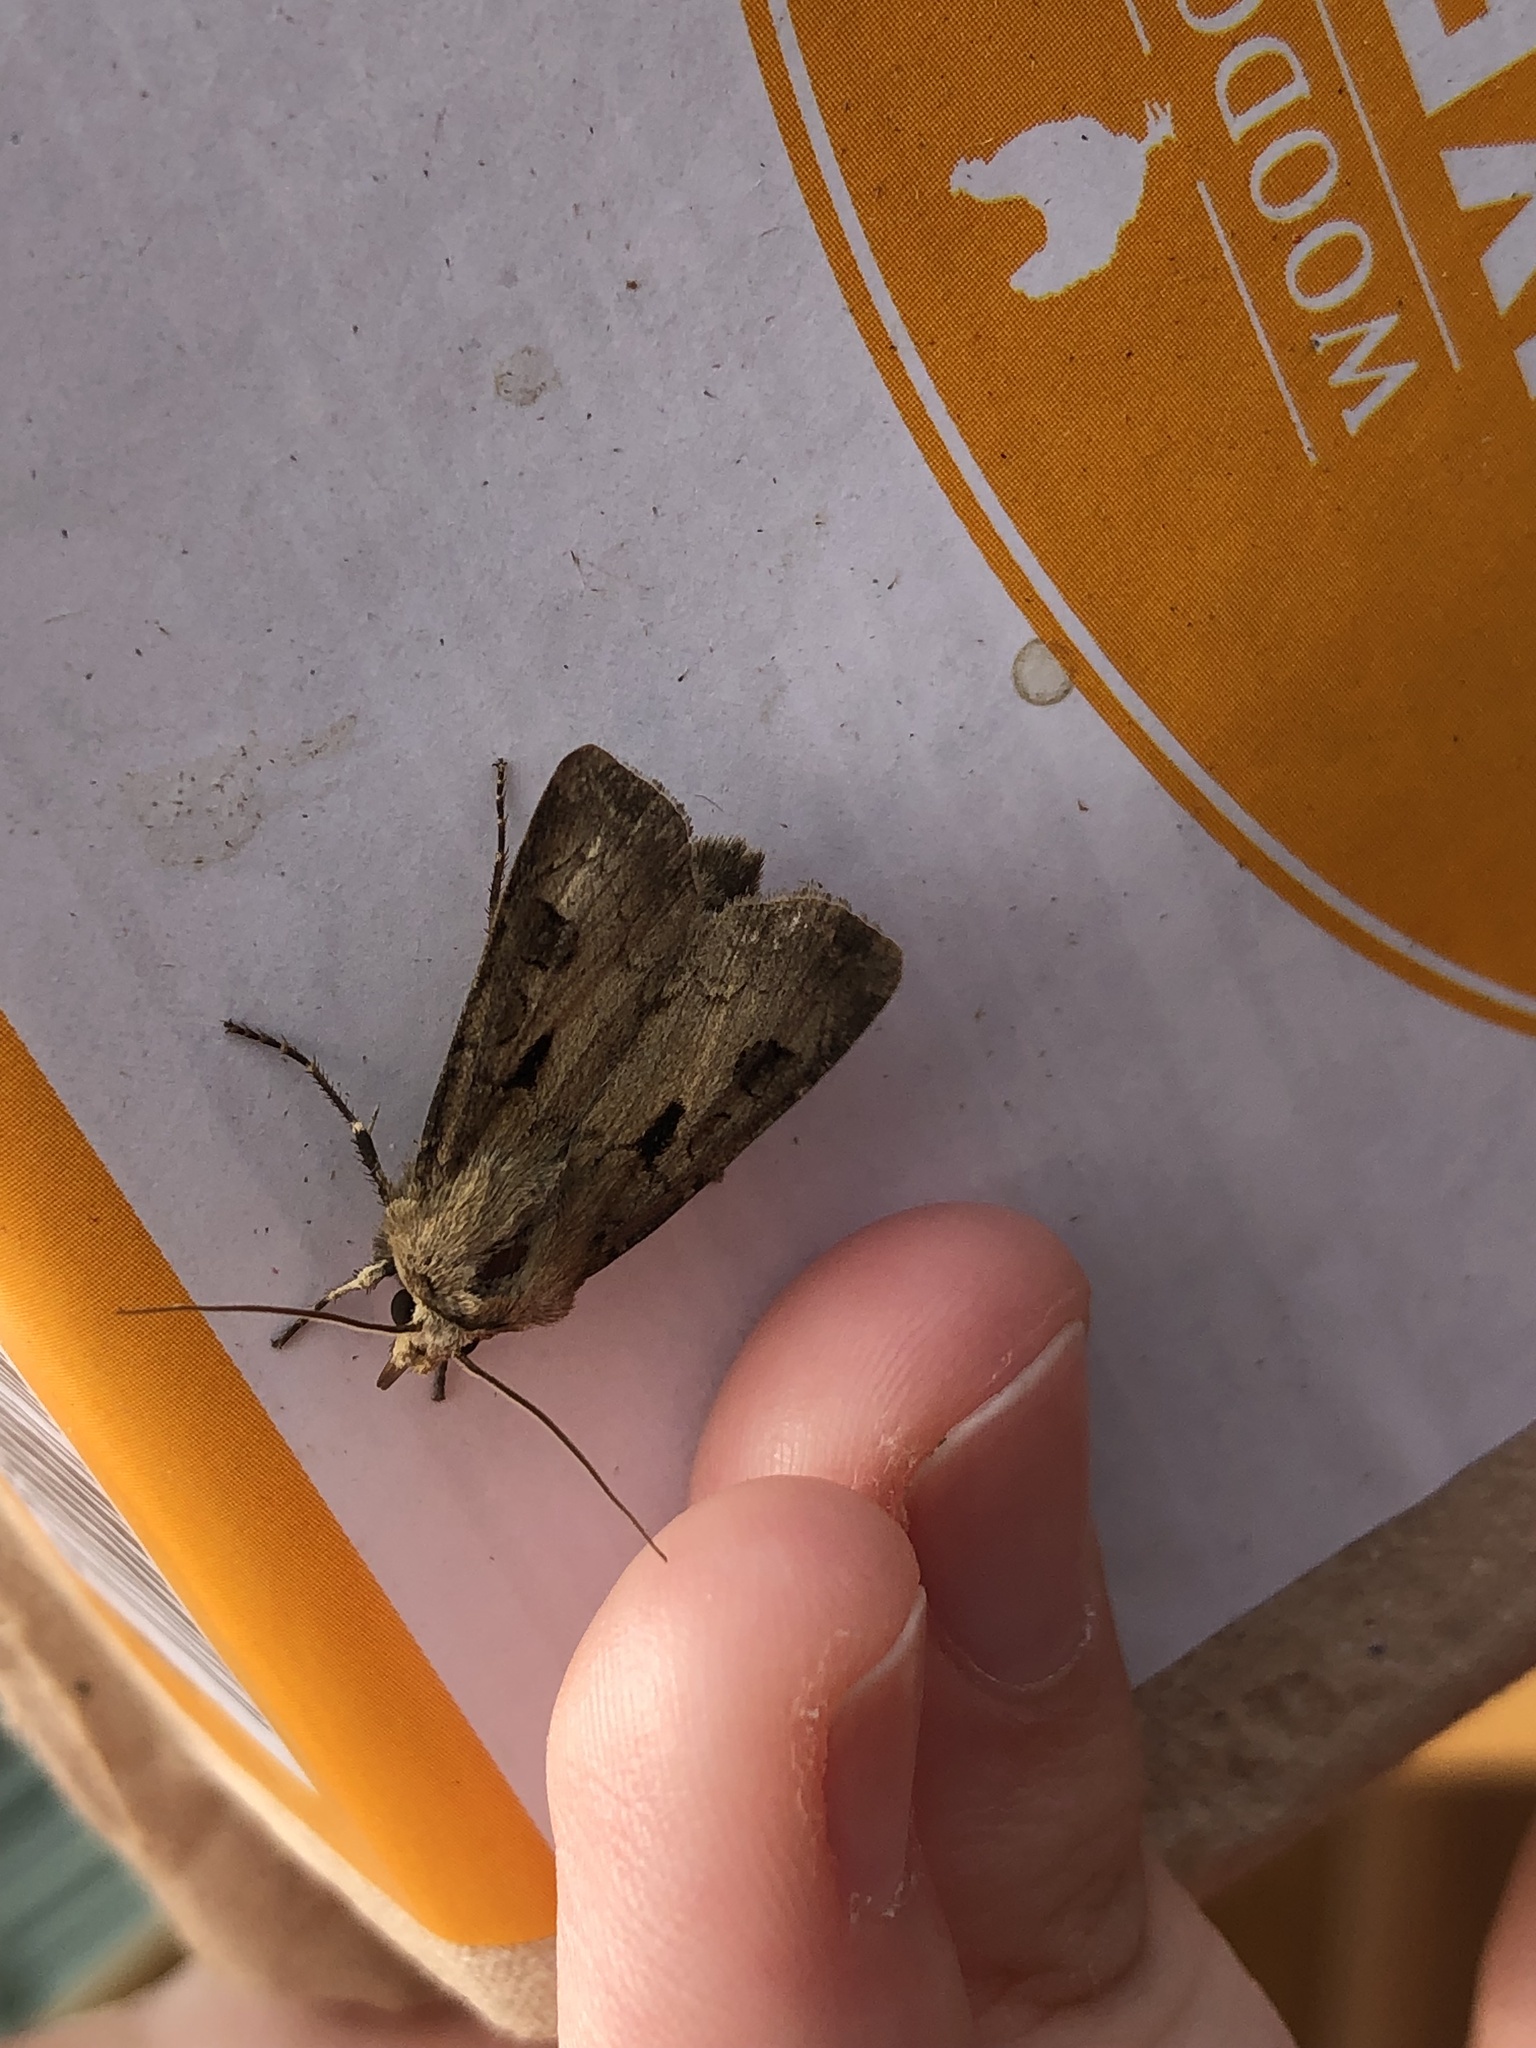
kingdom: Animalia
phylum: Arthropoda
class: Insecta
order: Lepidoptera
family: Noctuidae
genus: Agrotis
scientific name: Agrotis exclamationis
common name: Heart and dart
